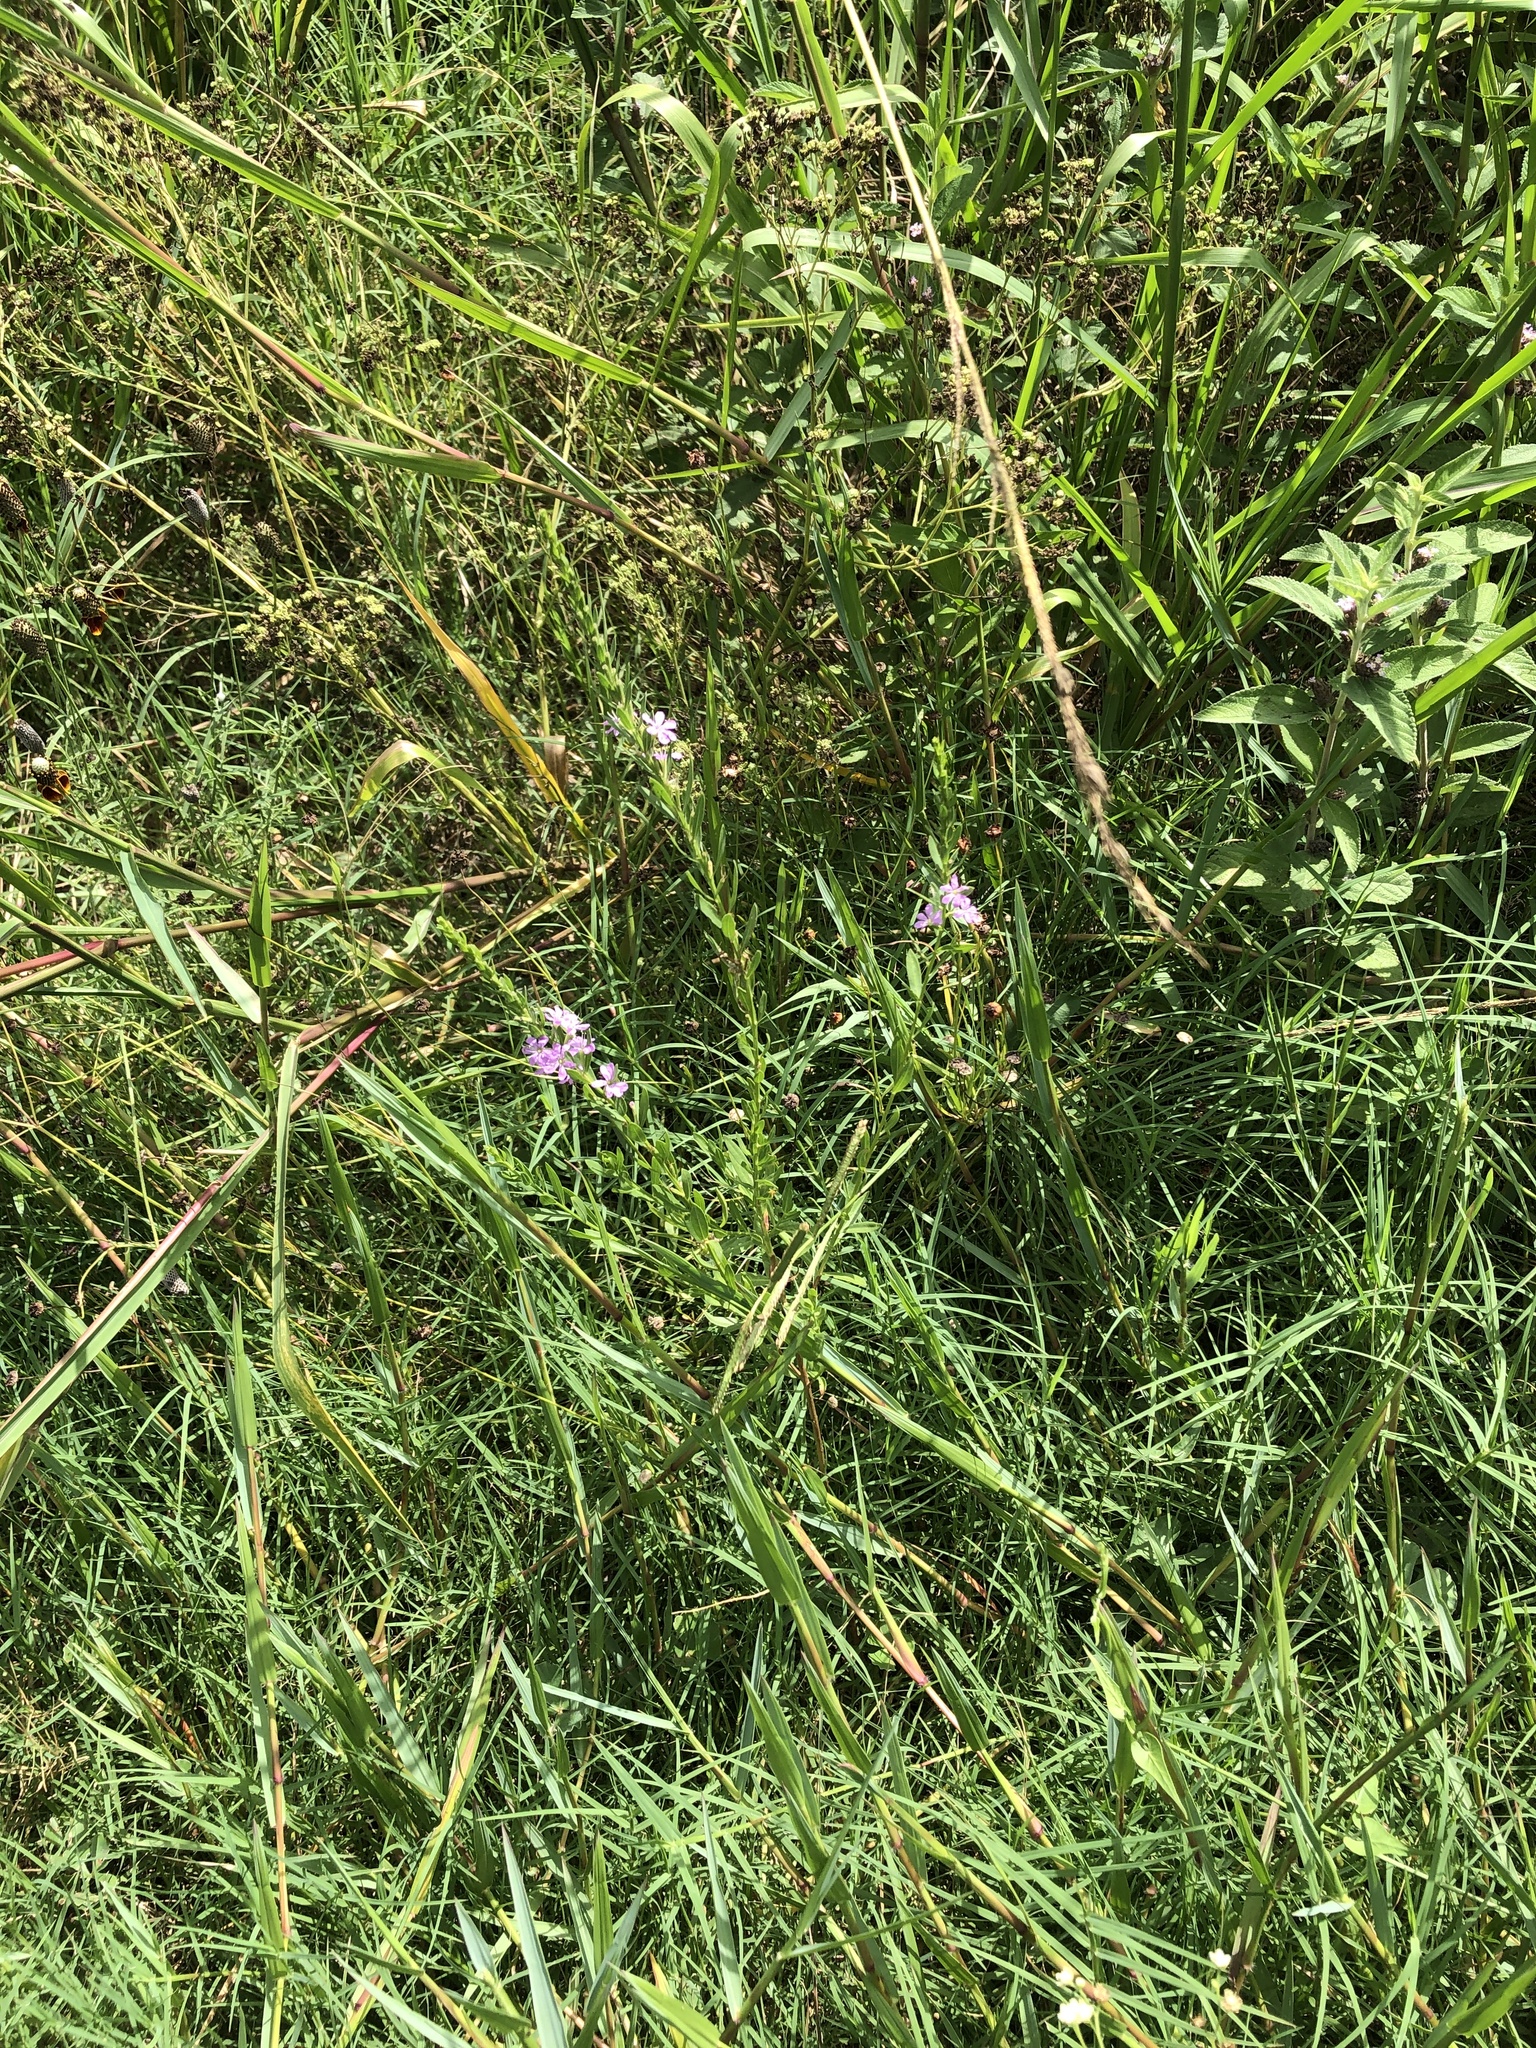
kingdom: Plantae
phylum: Tracheophyta
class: Magnoliopsida
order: Myrtales
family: Lythraceae
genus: Lythrum
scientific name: Lythrum alatum
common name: Winged loosestrife
